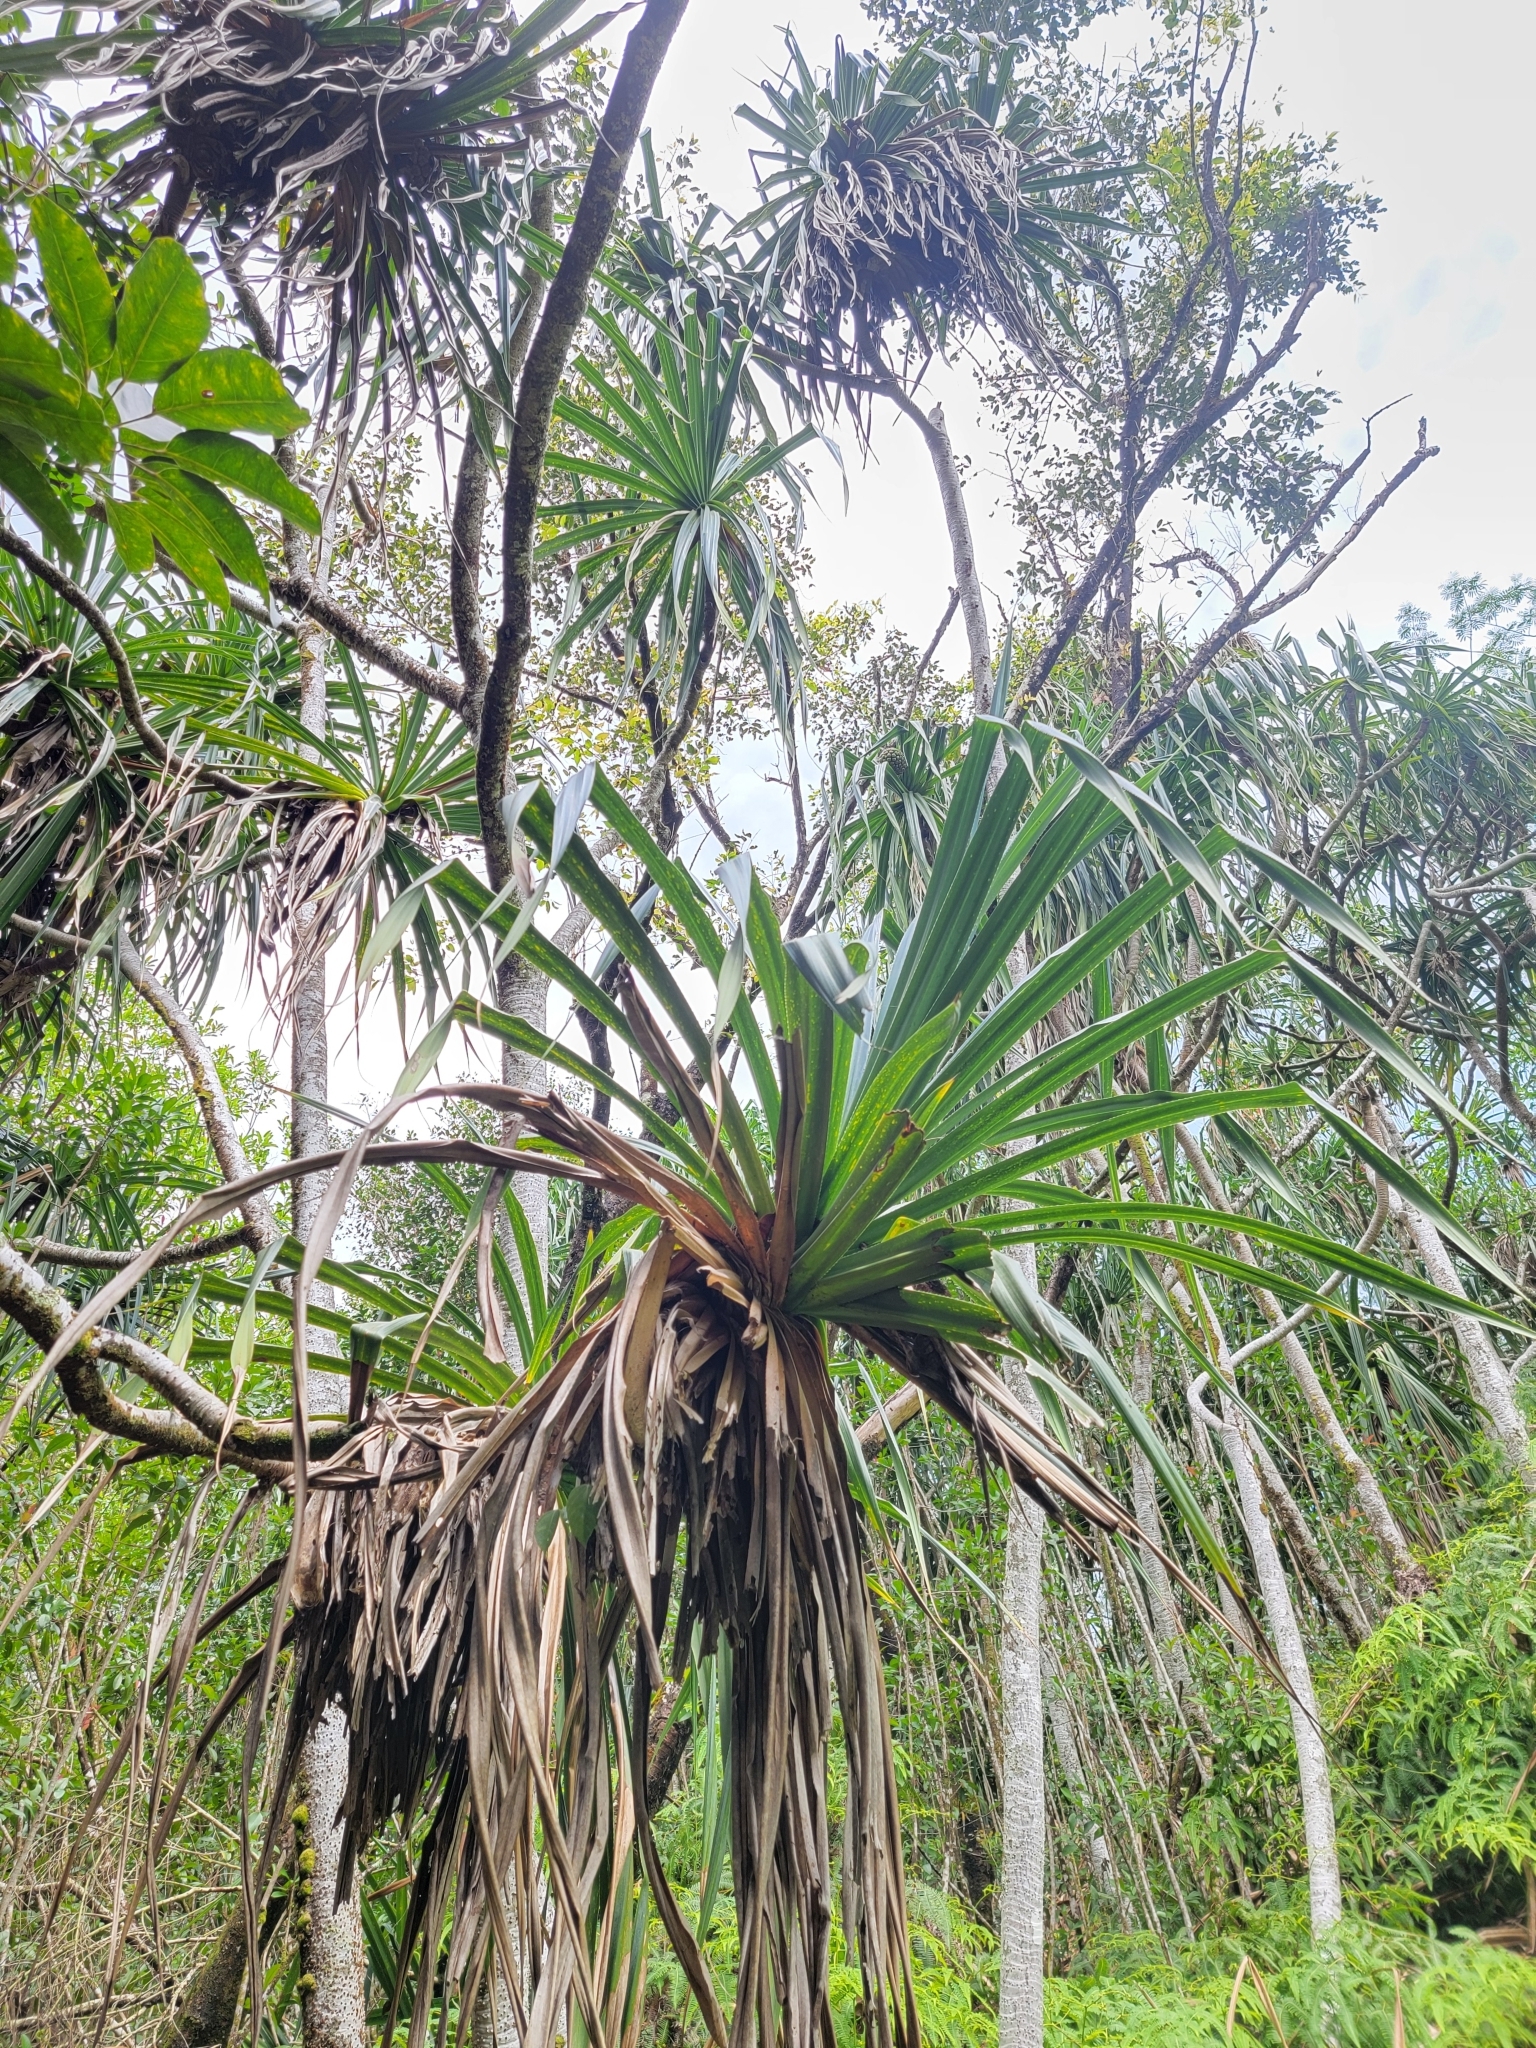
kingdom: Plantae
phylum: Tracheophyta
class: Liliopsida
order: Pandanales
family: Pandanaceae
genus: Pandanus
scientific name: Pandanus tectorius
